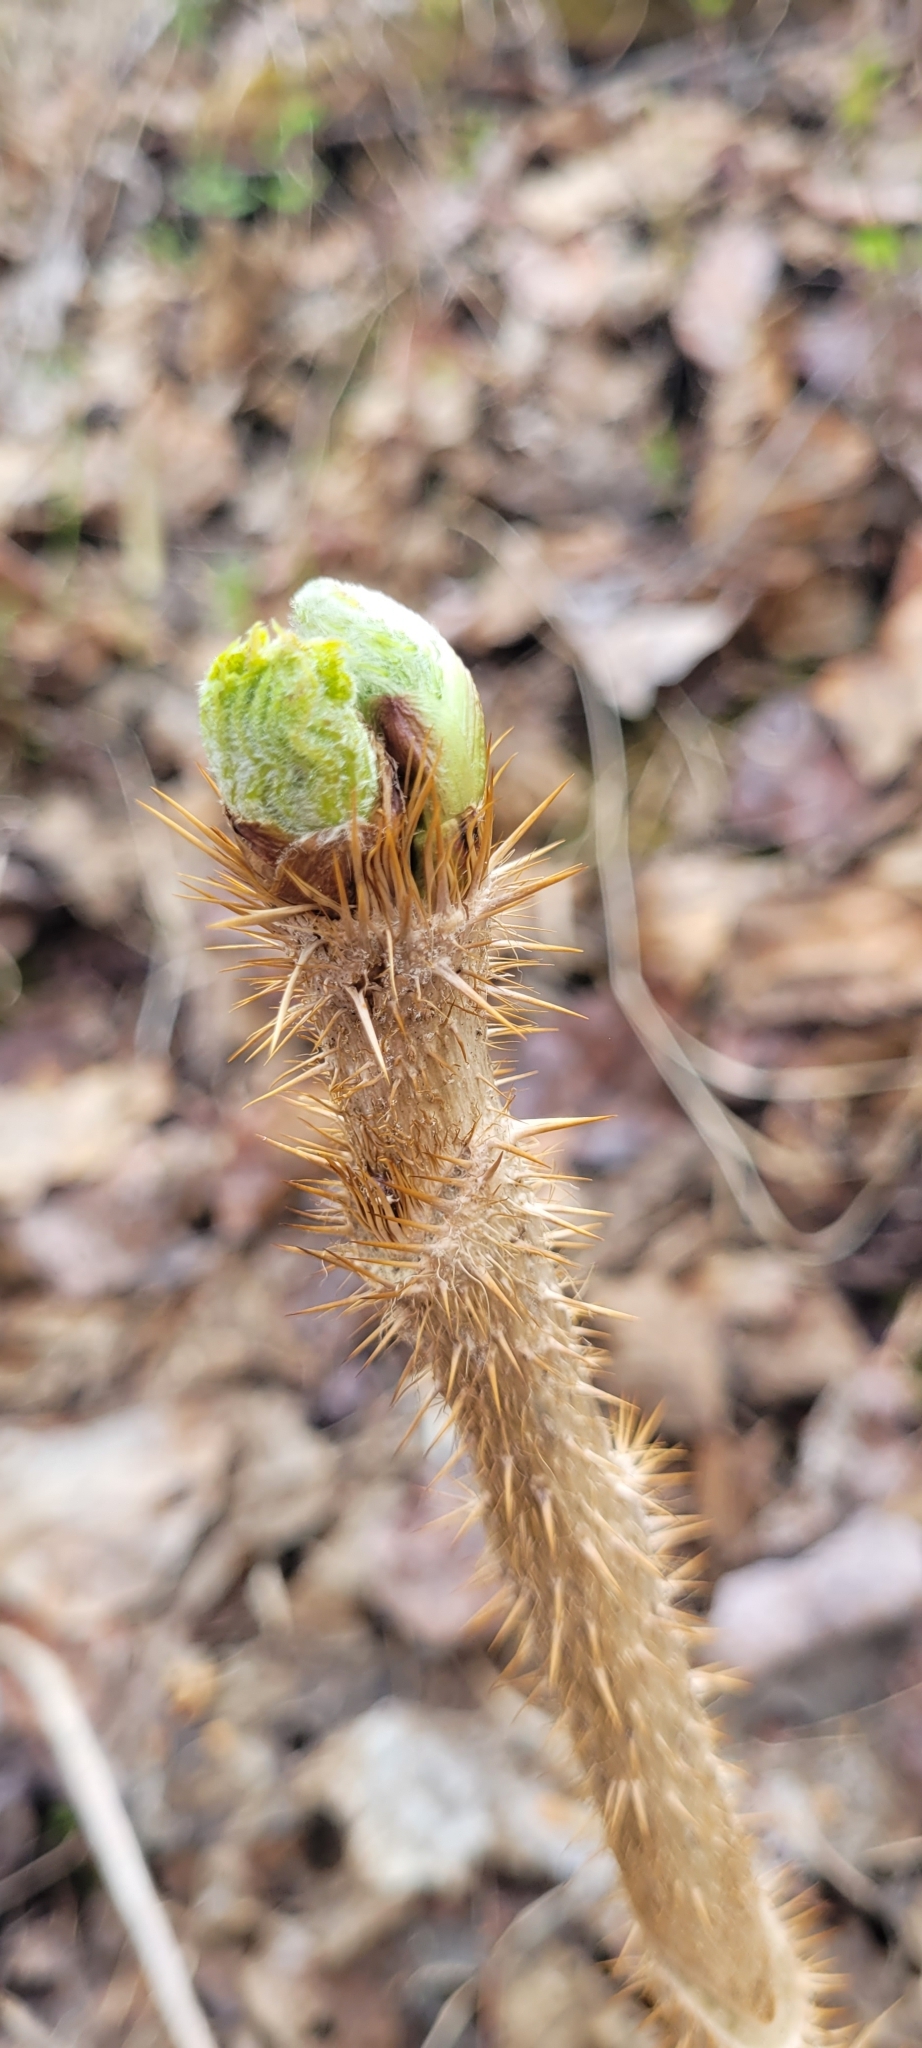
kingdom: Plantae
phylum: Tracheophyta
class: Magnoliopsida
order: Apiales
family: Araliaceae
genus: Oplopanax
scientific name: Oplopanax horridus
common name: Devil's walking-stick
